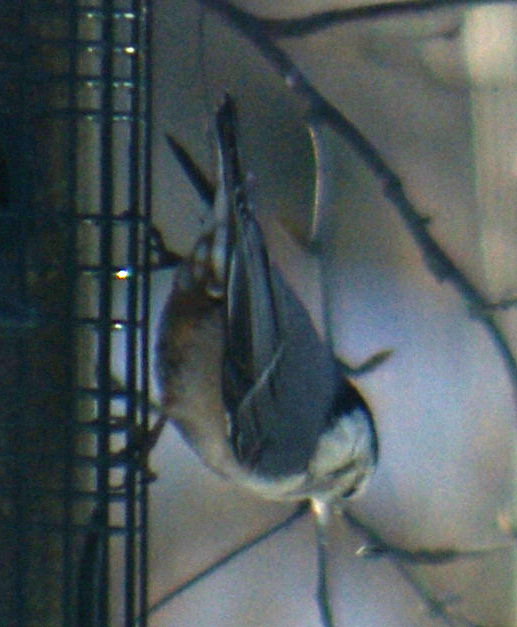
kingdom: Animalia
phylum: Chordata
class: Aves
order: Passeriformes
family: Sittidae
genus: Sitta
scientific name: Sitta carolinensis
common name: White-breasted nuthatch
